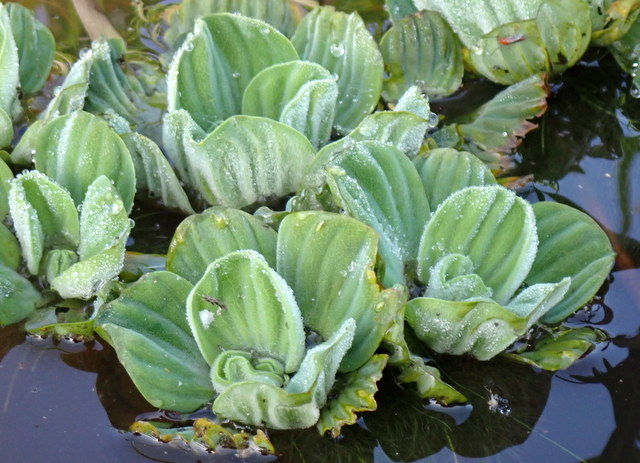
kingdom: Plantae
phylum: Tracheophyta
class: Liliopsida
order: Alismatales
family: Araceae
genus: Pistia
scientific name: Pistia stratiotes
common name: Water lettuce
